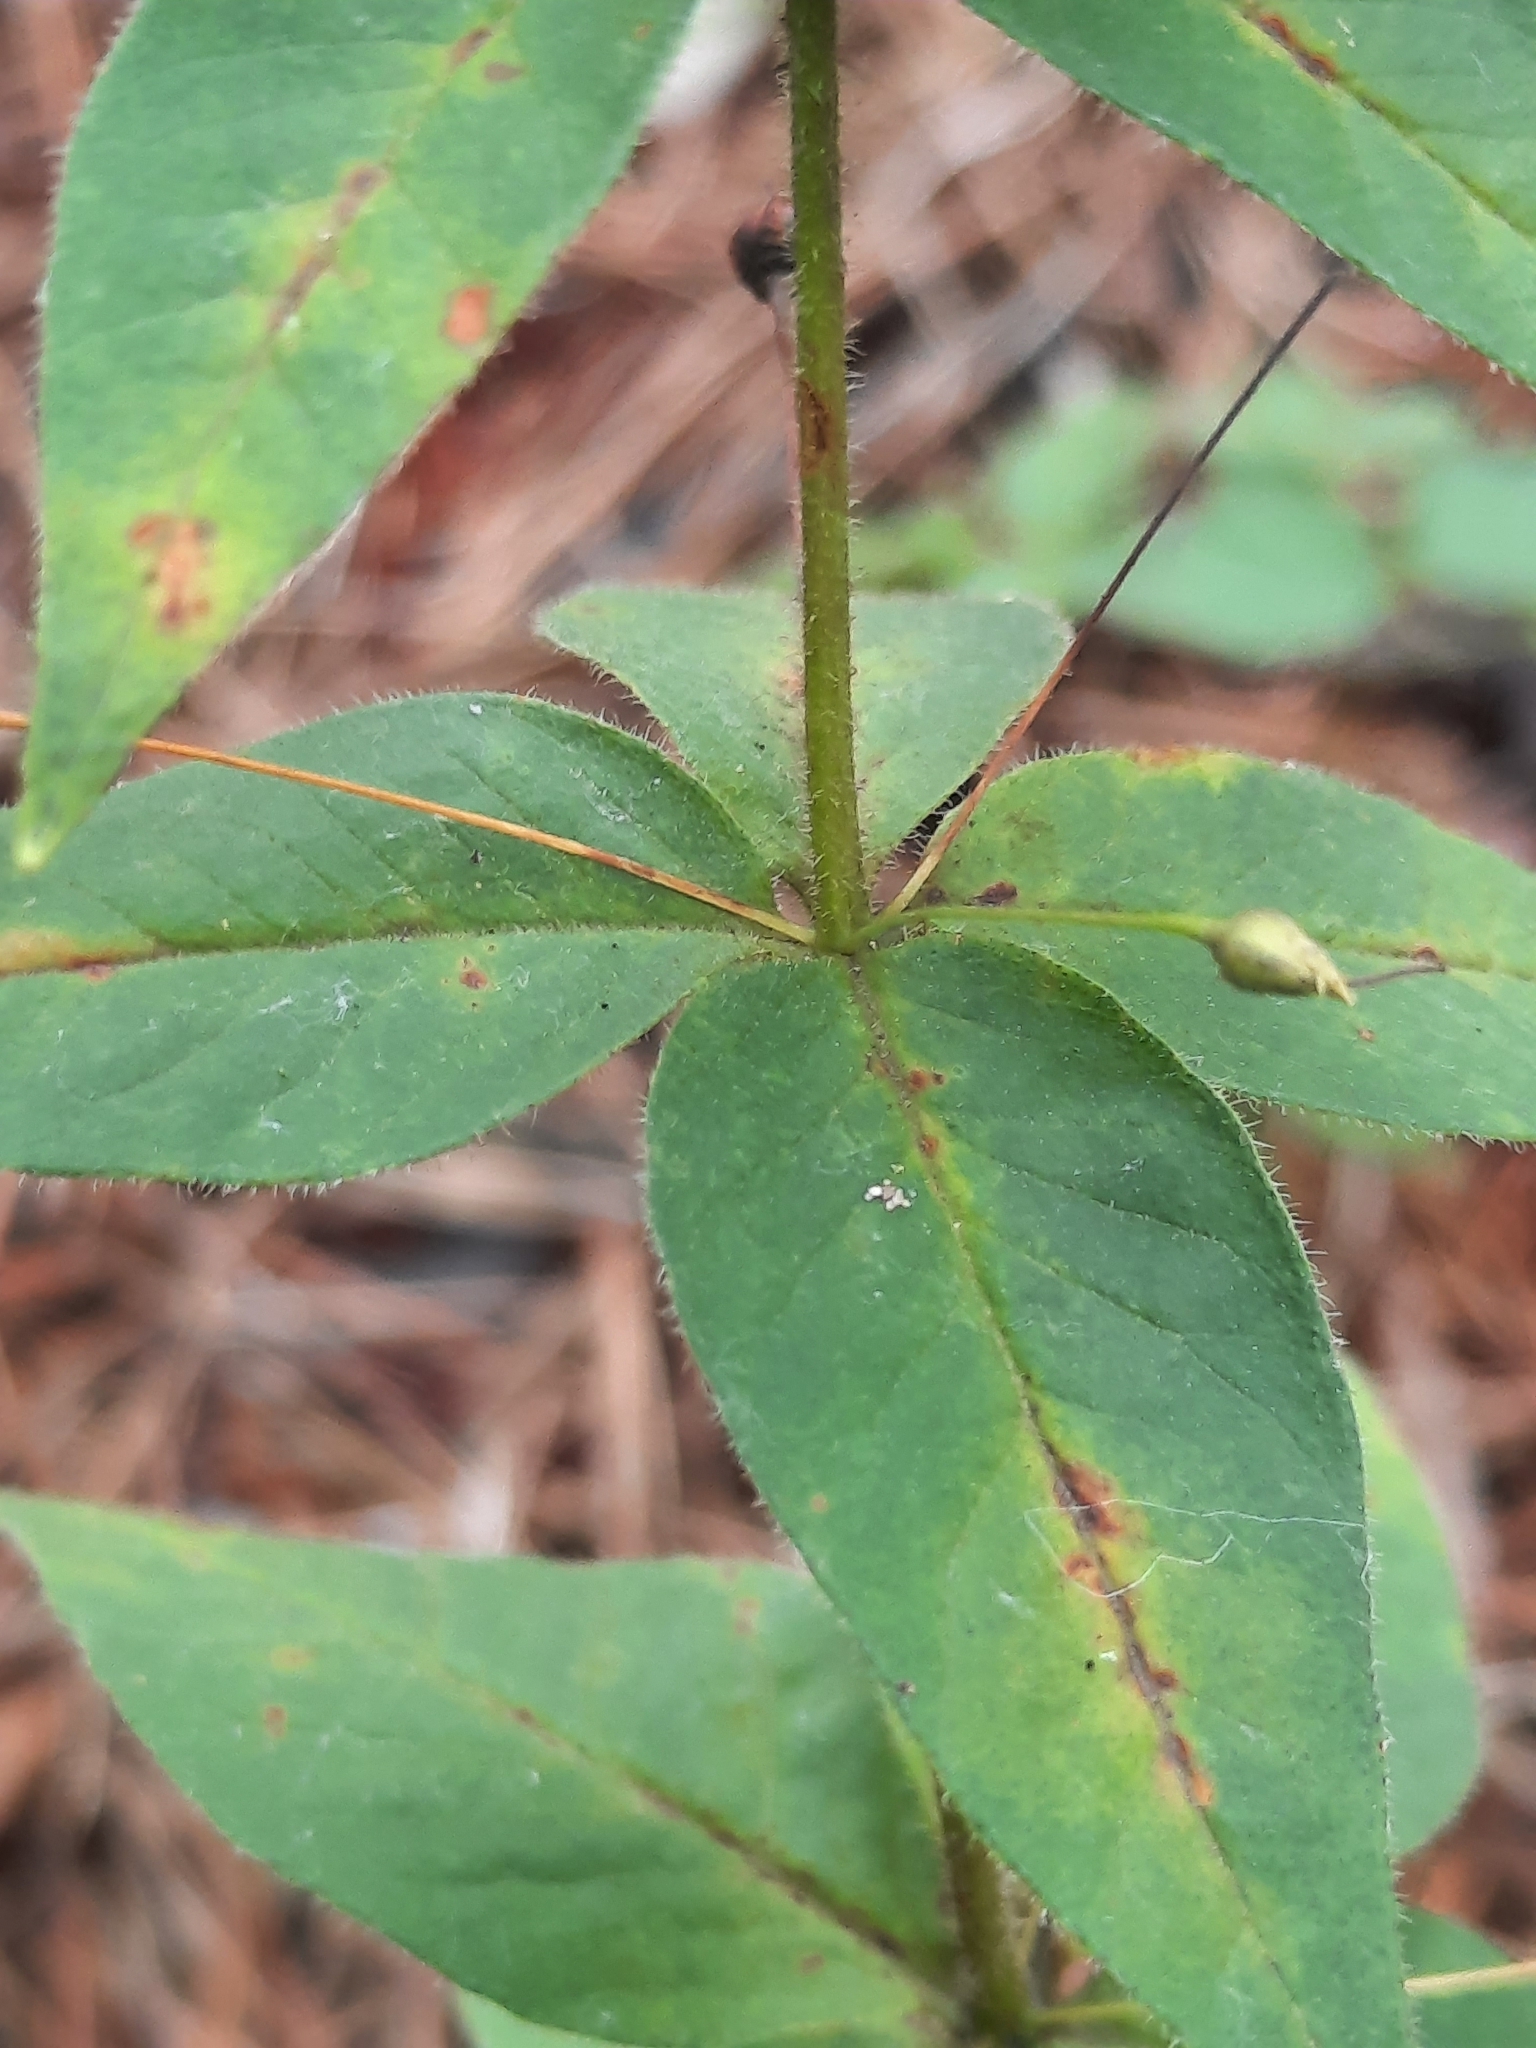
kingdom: Plantae
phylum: Tracheophyta
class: Magnoliopsida
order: Ericales
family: Primulaceae
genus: Lysimachia
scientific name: Lysimachia quadrifolia
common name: Whorled loosestrife
